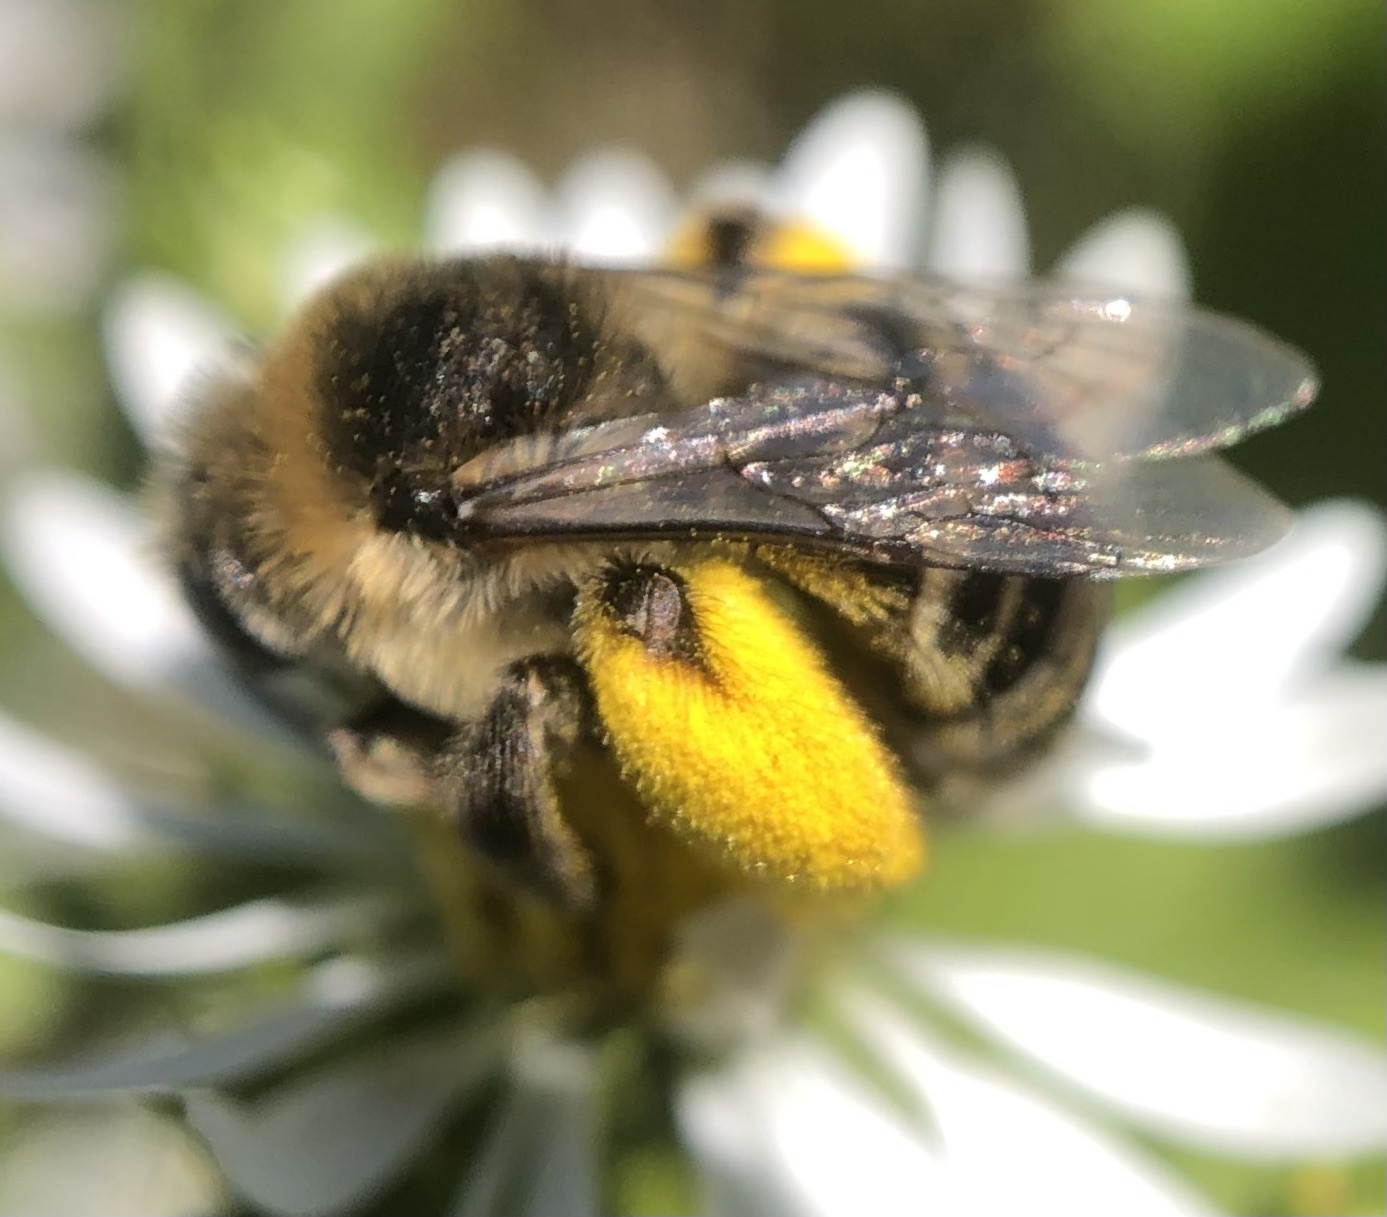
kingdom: Animalia
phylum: Arthropoda
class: Insecta
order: Hymenoptera
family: Apidae
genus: Melissodes
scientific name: Melissodes druriellus
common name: Drury's long-horned bee
